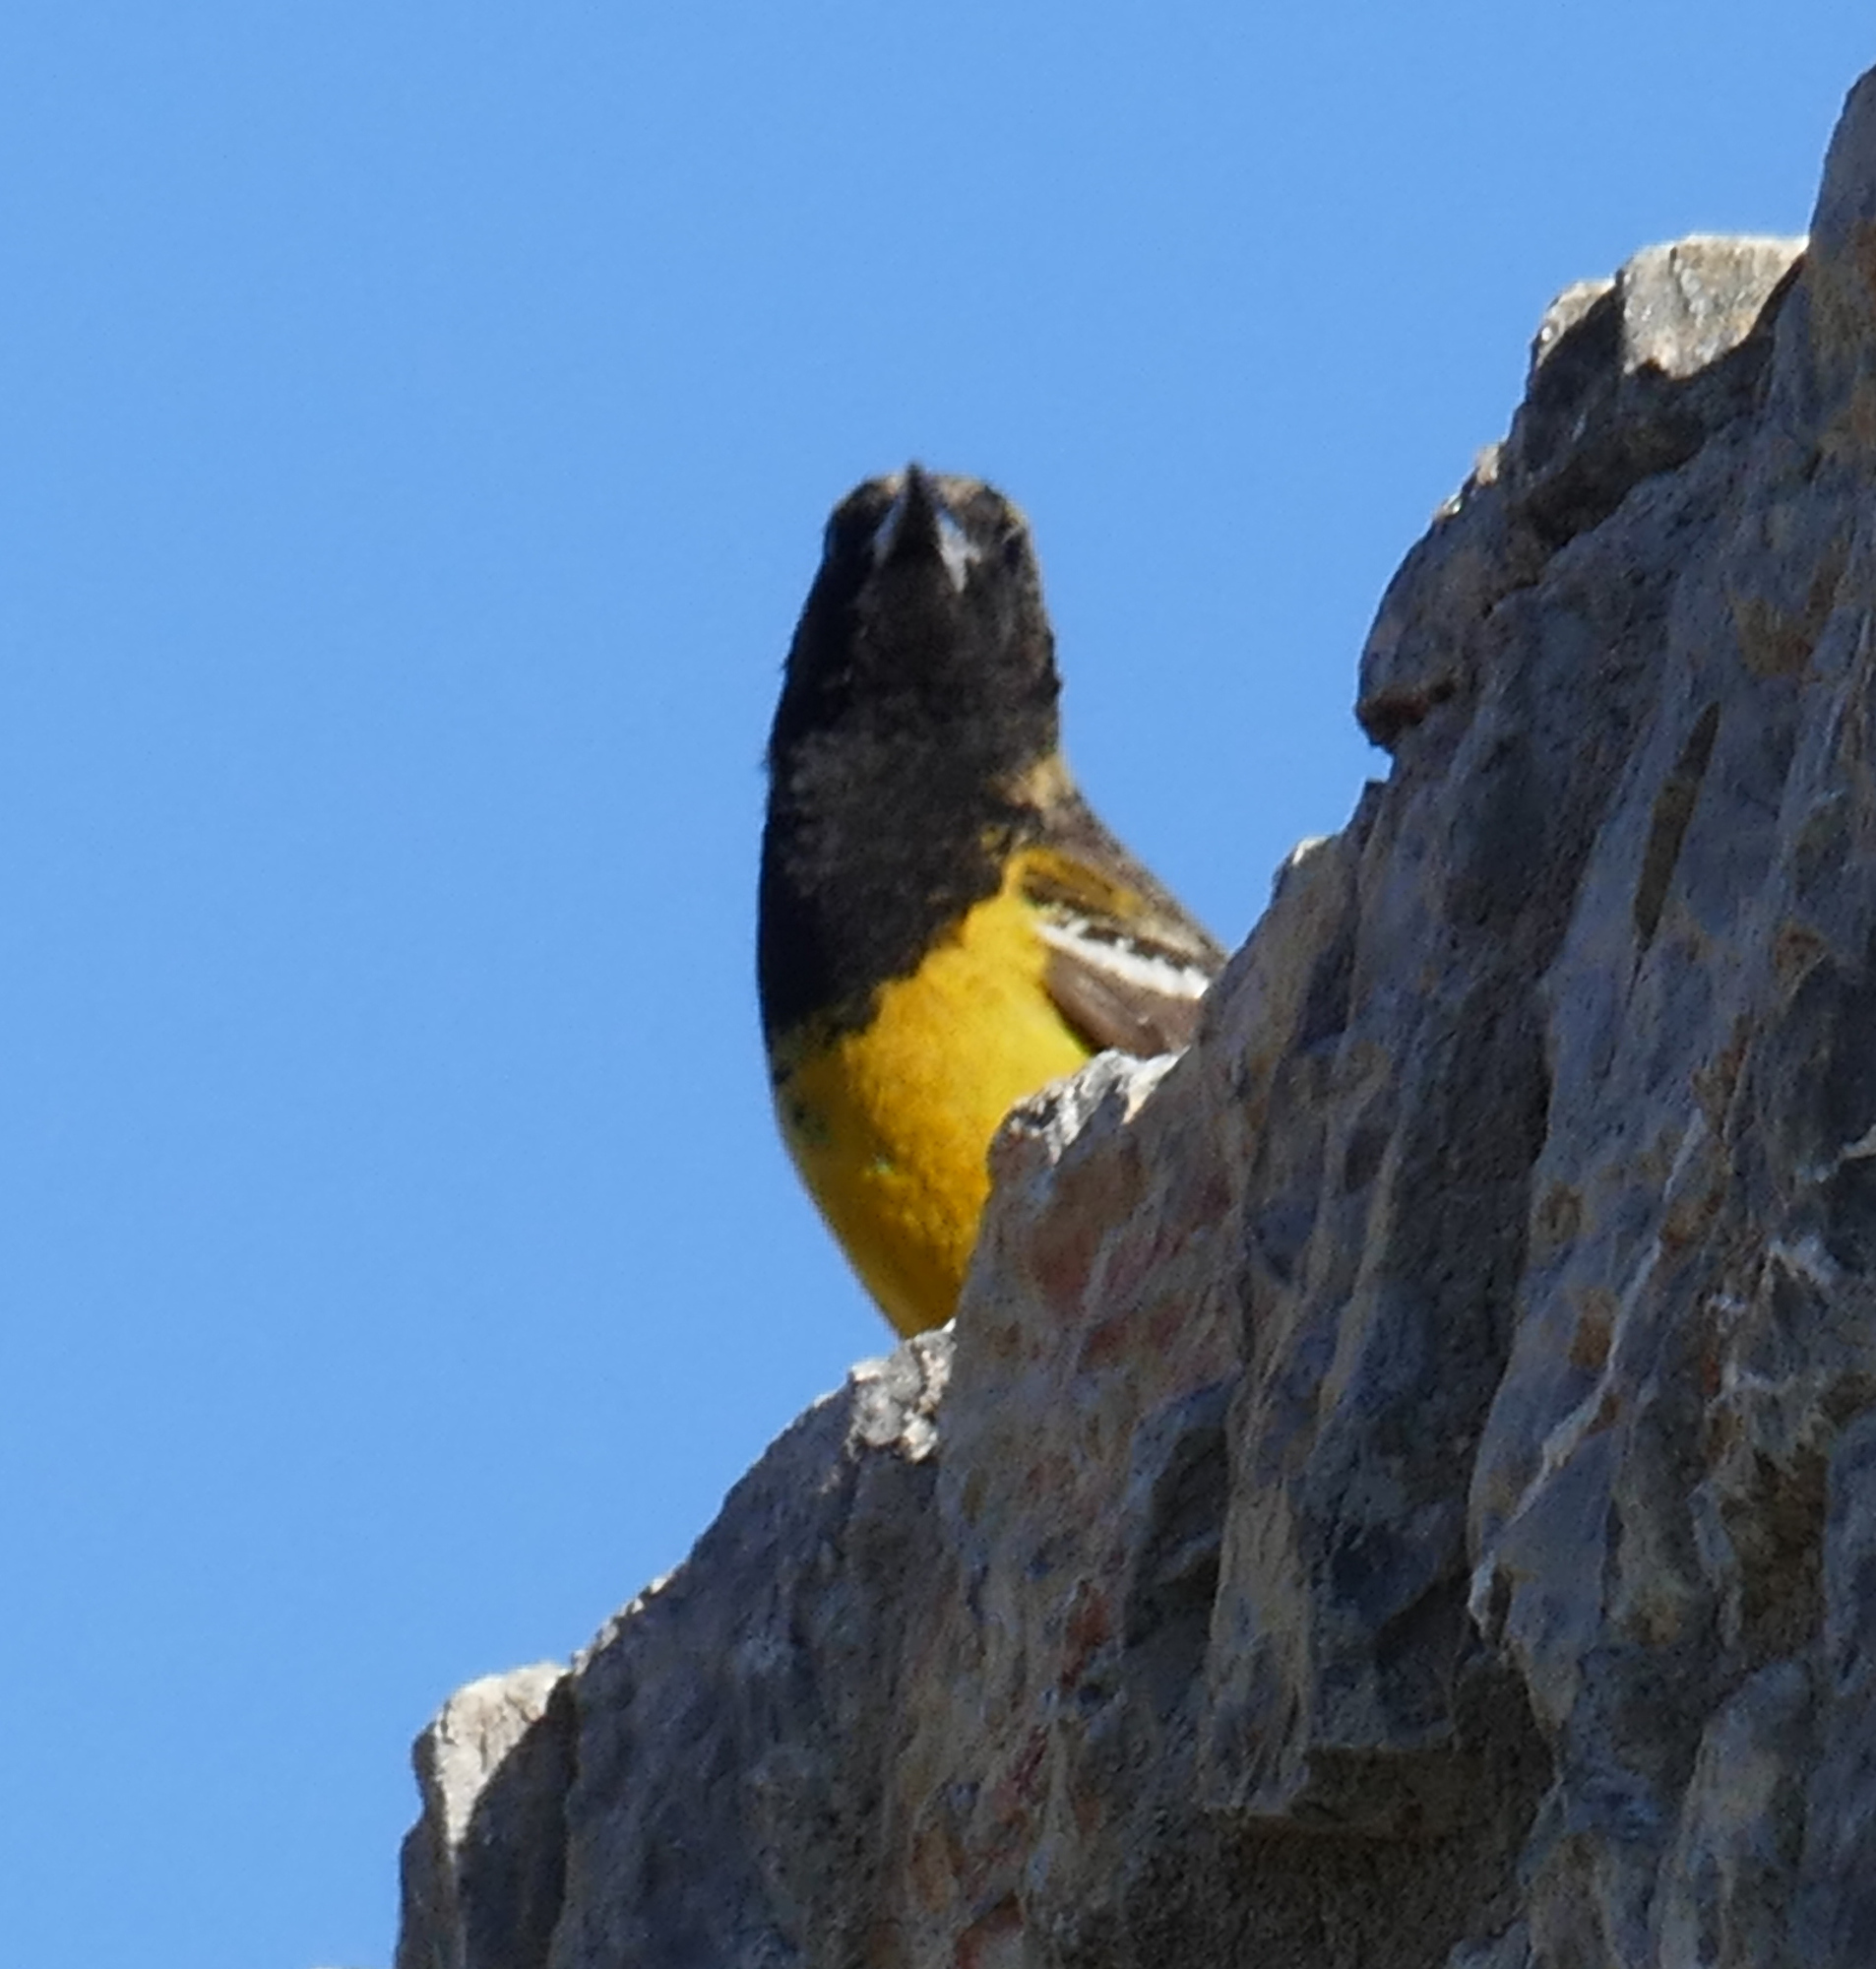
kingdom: Animalia
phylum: Chordata
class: Aves
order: Passeriformes
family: Icteridae
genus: Icterus
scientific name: Icterus parisorum
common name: Scott's oriole
